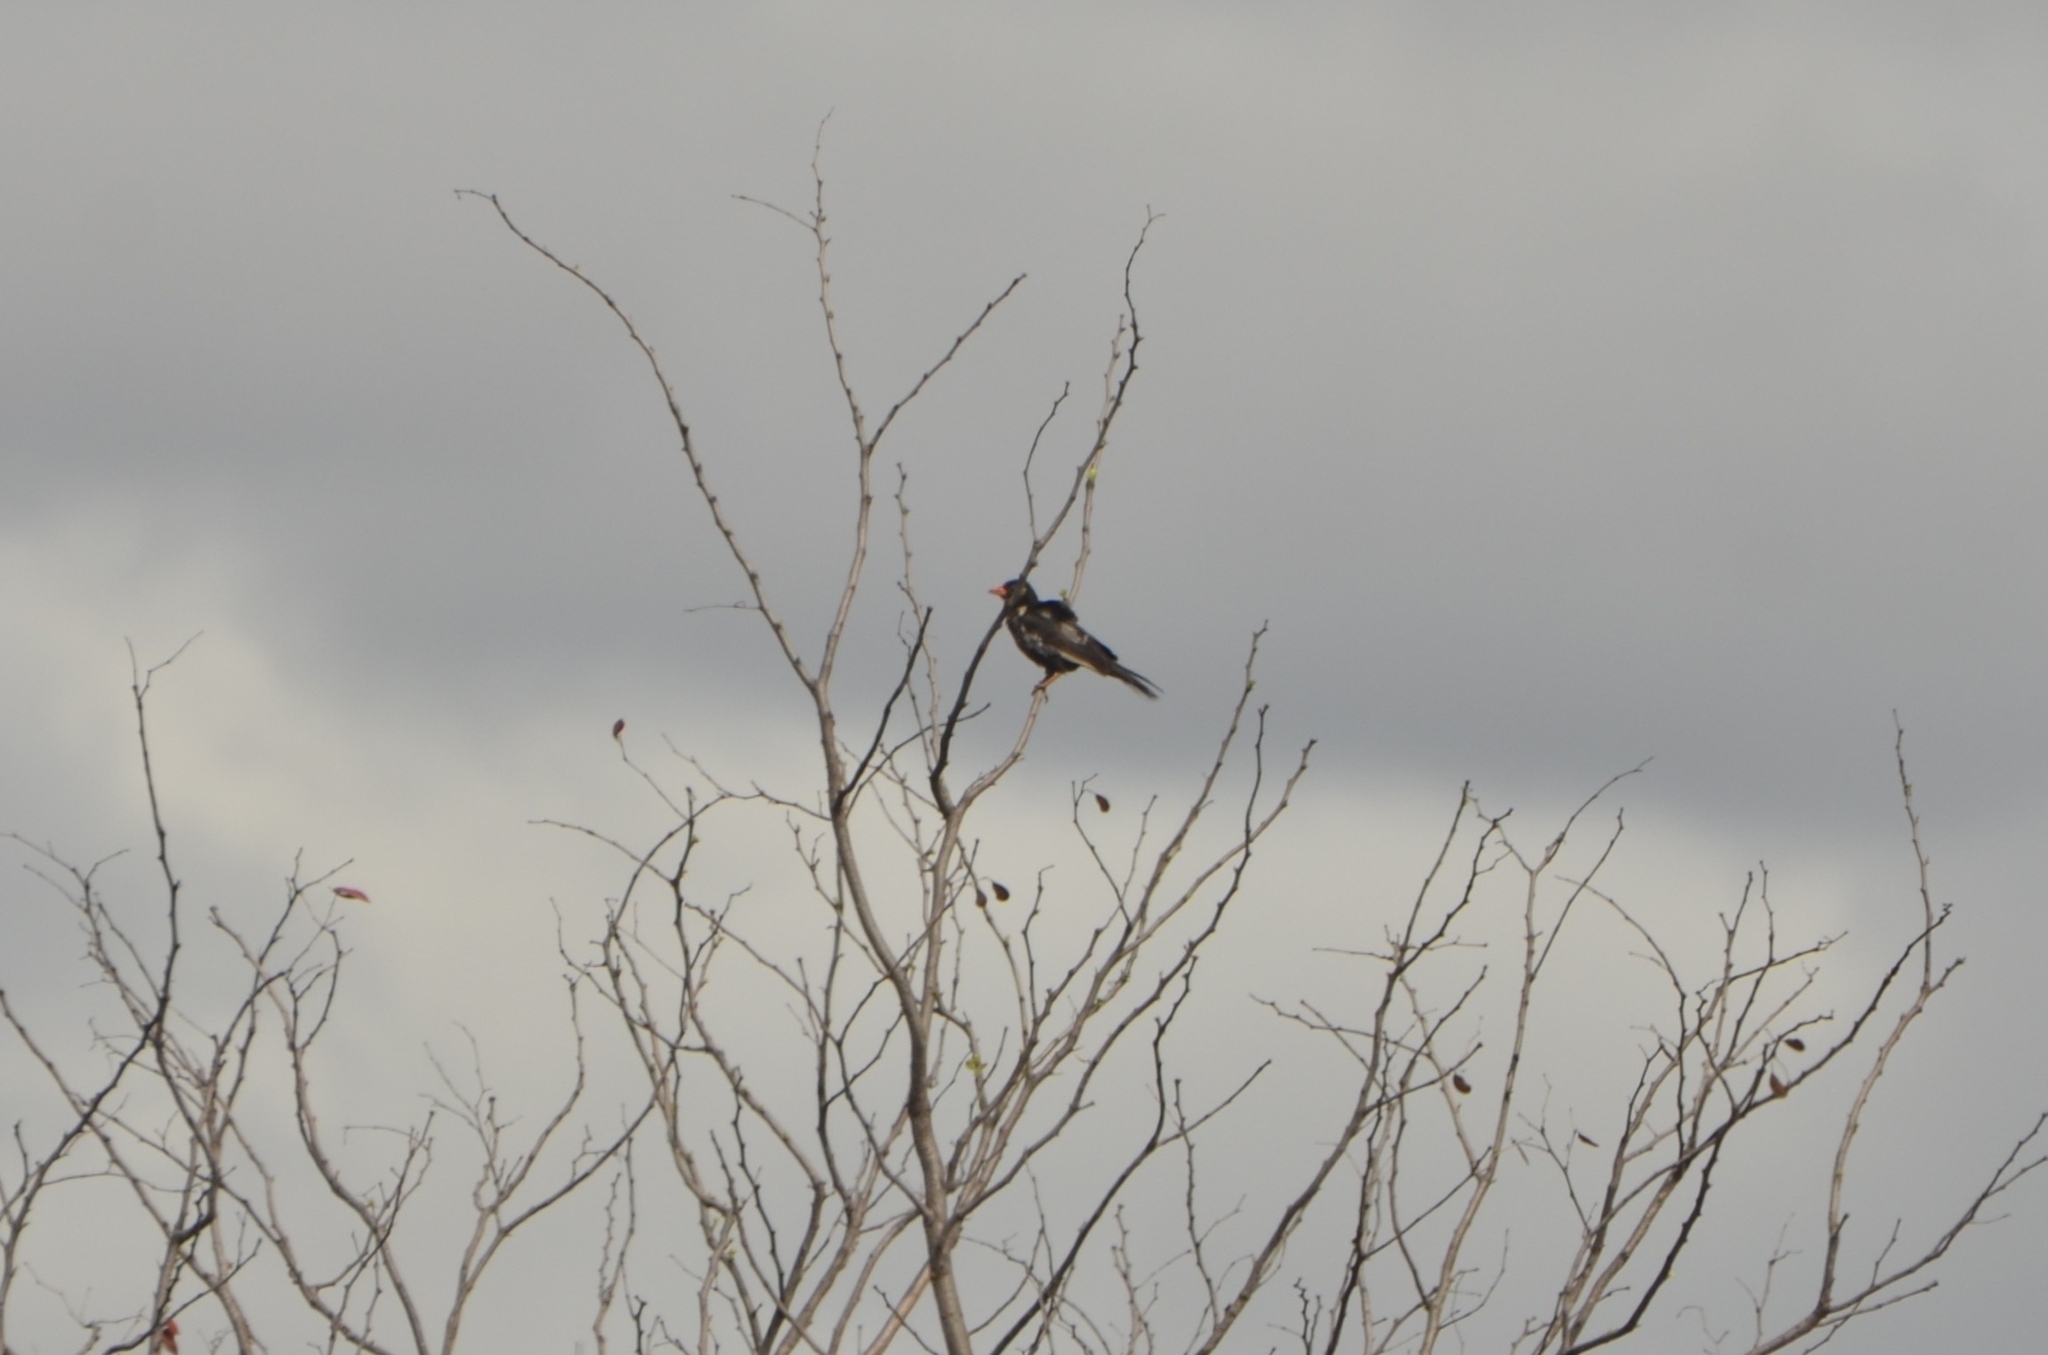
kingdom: Animalia
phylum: Chordata
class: Aves
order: Passeriformes
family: Ploceidae
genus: Bubalornis
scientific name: Bubalornis niger
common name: Red-billed buffalo weaver
